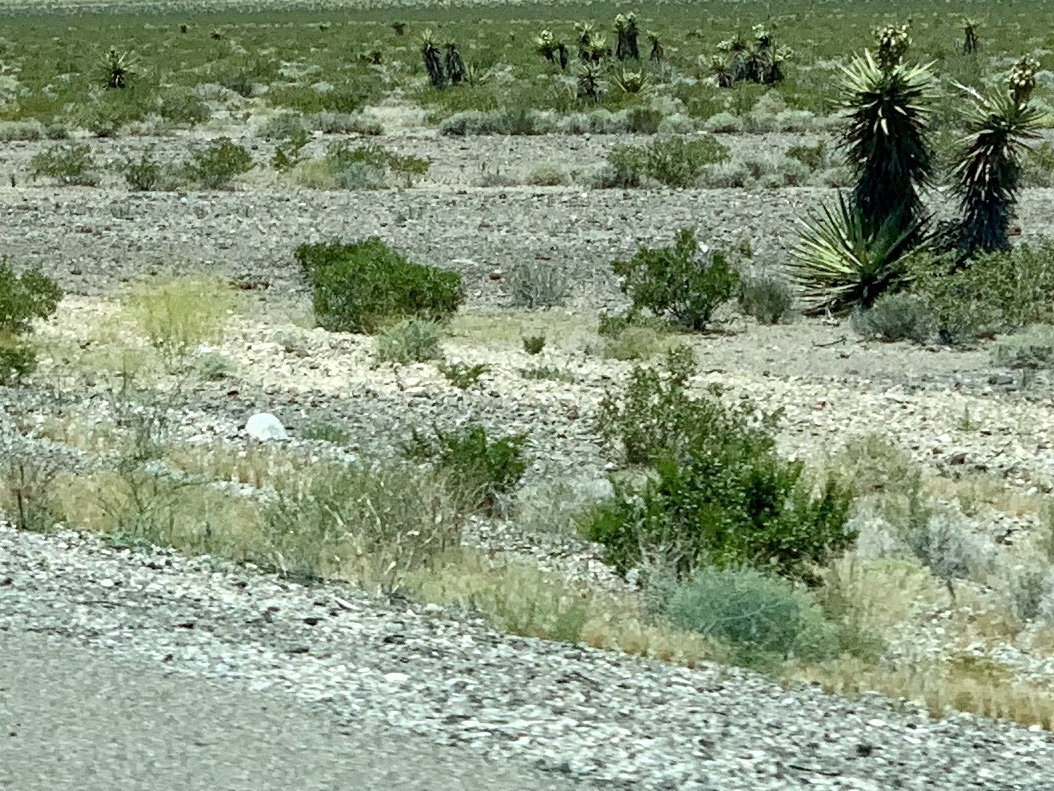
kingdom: Plantae
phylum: Tracheophyta
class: Magnoliopsida
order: Zygophyllales
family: Zygophyllaceae
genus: Larrea
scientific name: Larrea tridentata
